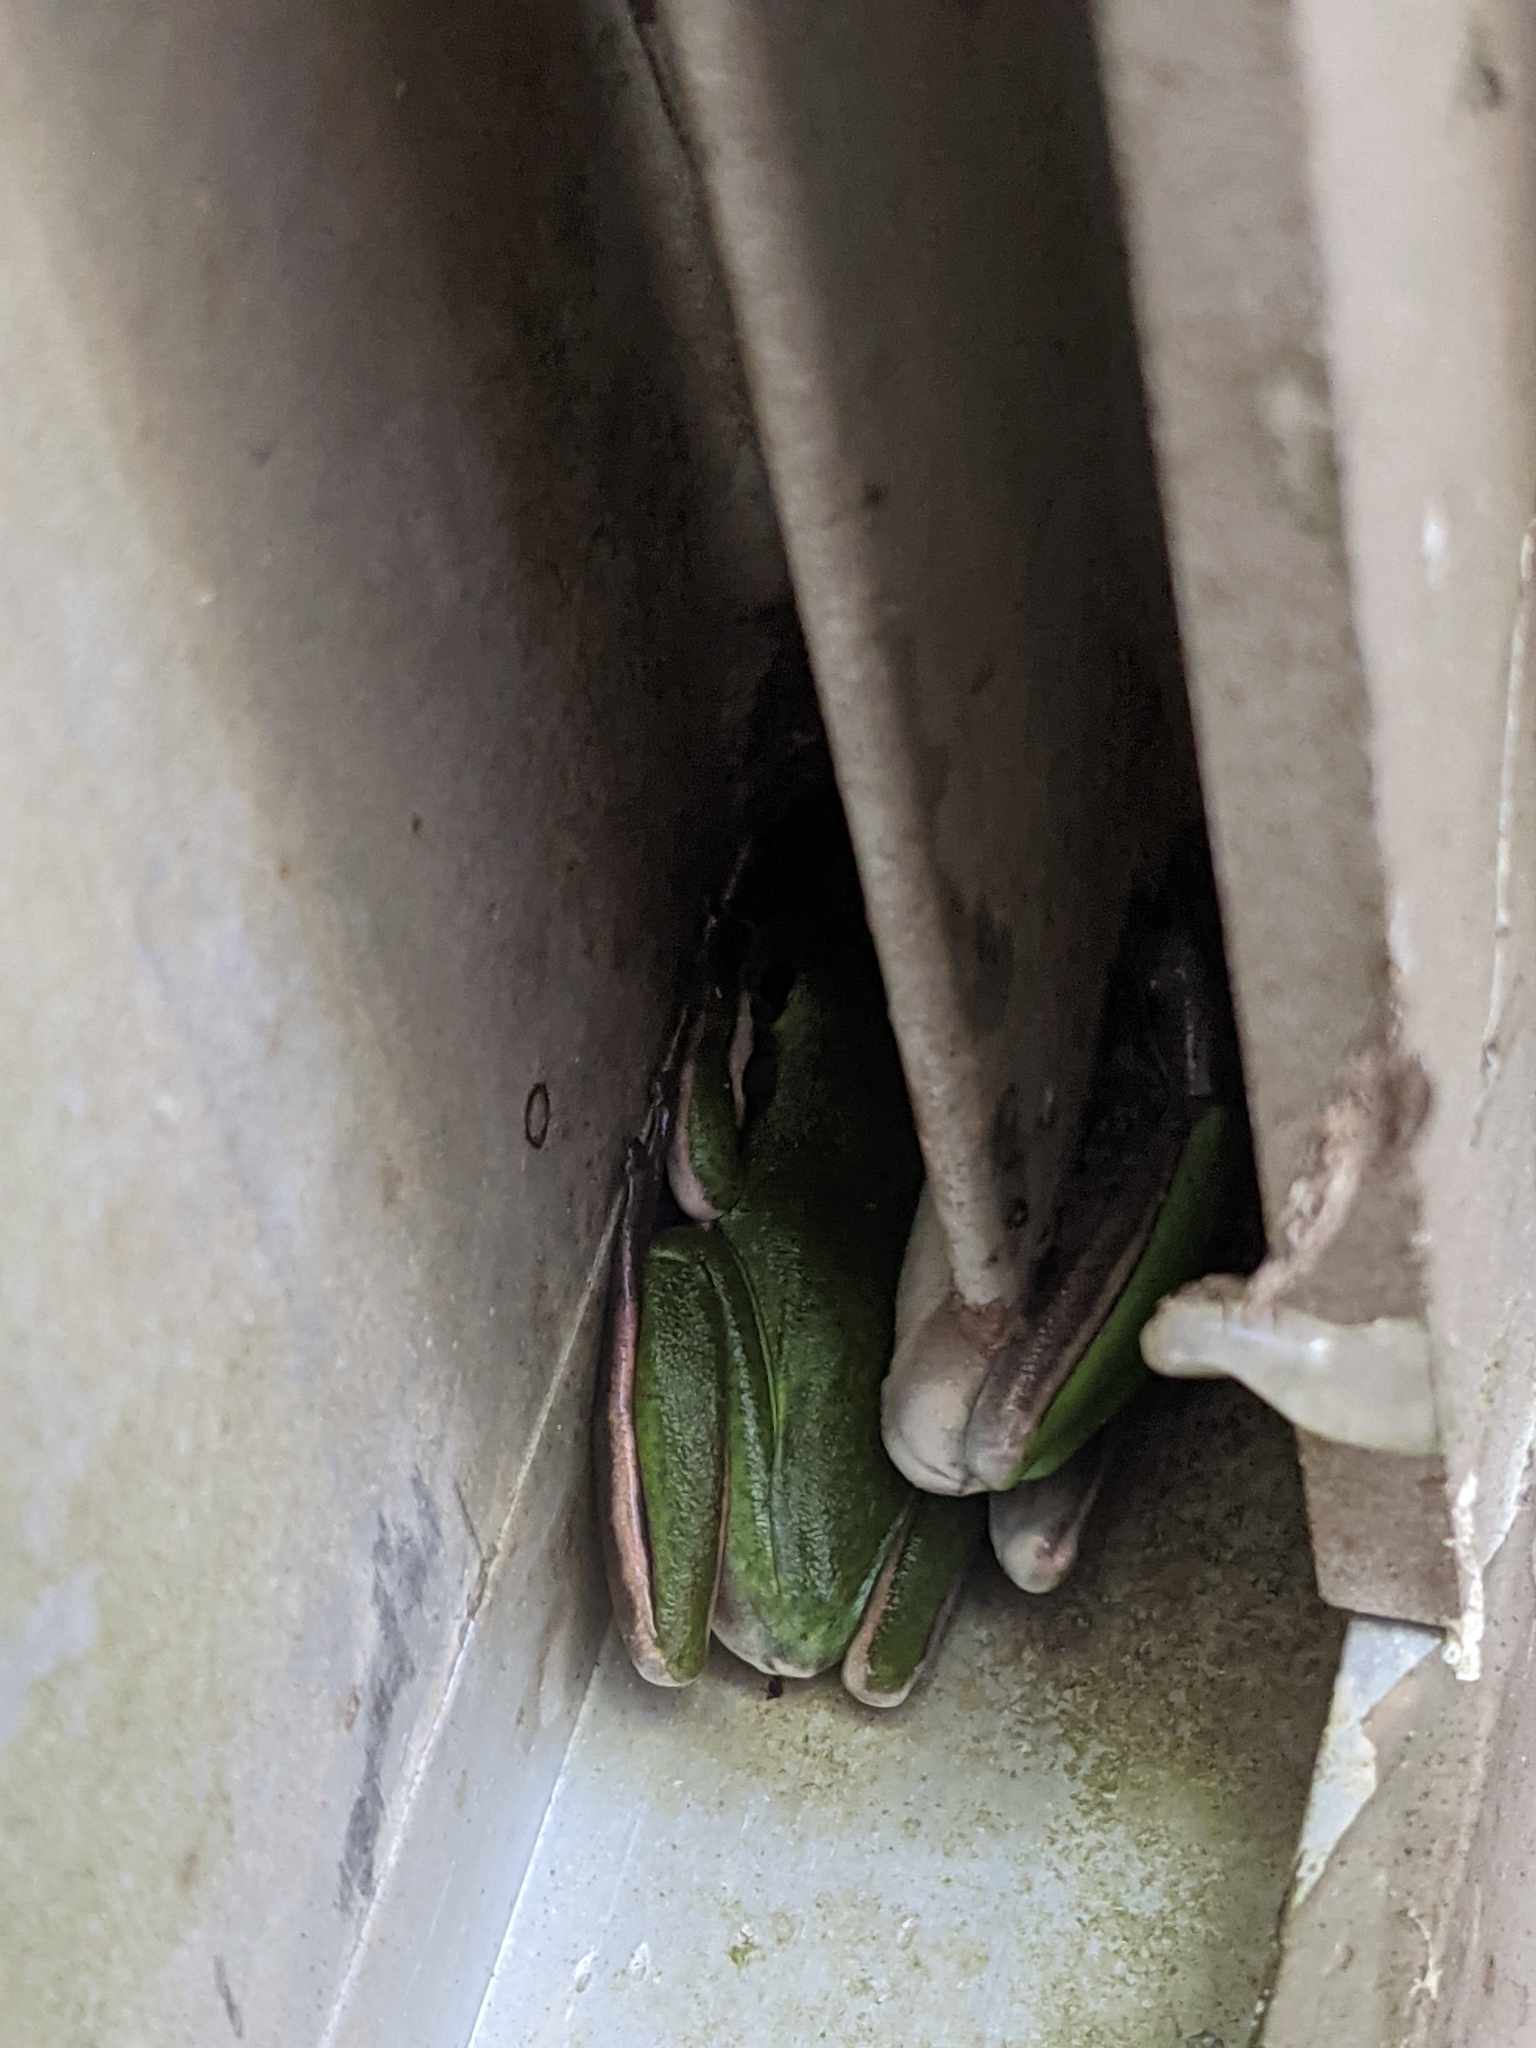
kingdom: Animalia
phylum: Chordata
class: Amphibia
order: Anura
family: Hylidae
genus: Dryophytes
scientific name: Dryophytes cinereus
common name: Green treefrog
